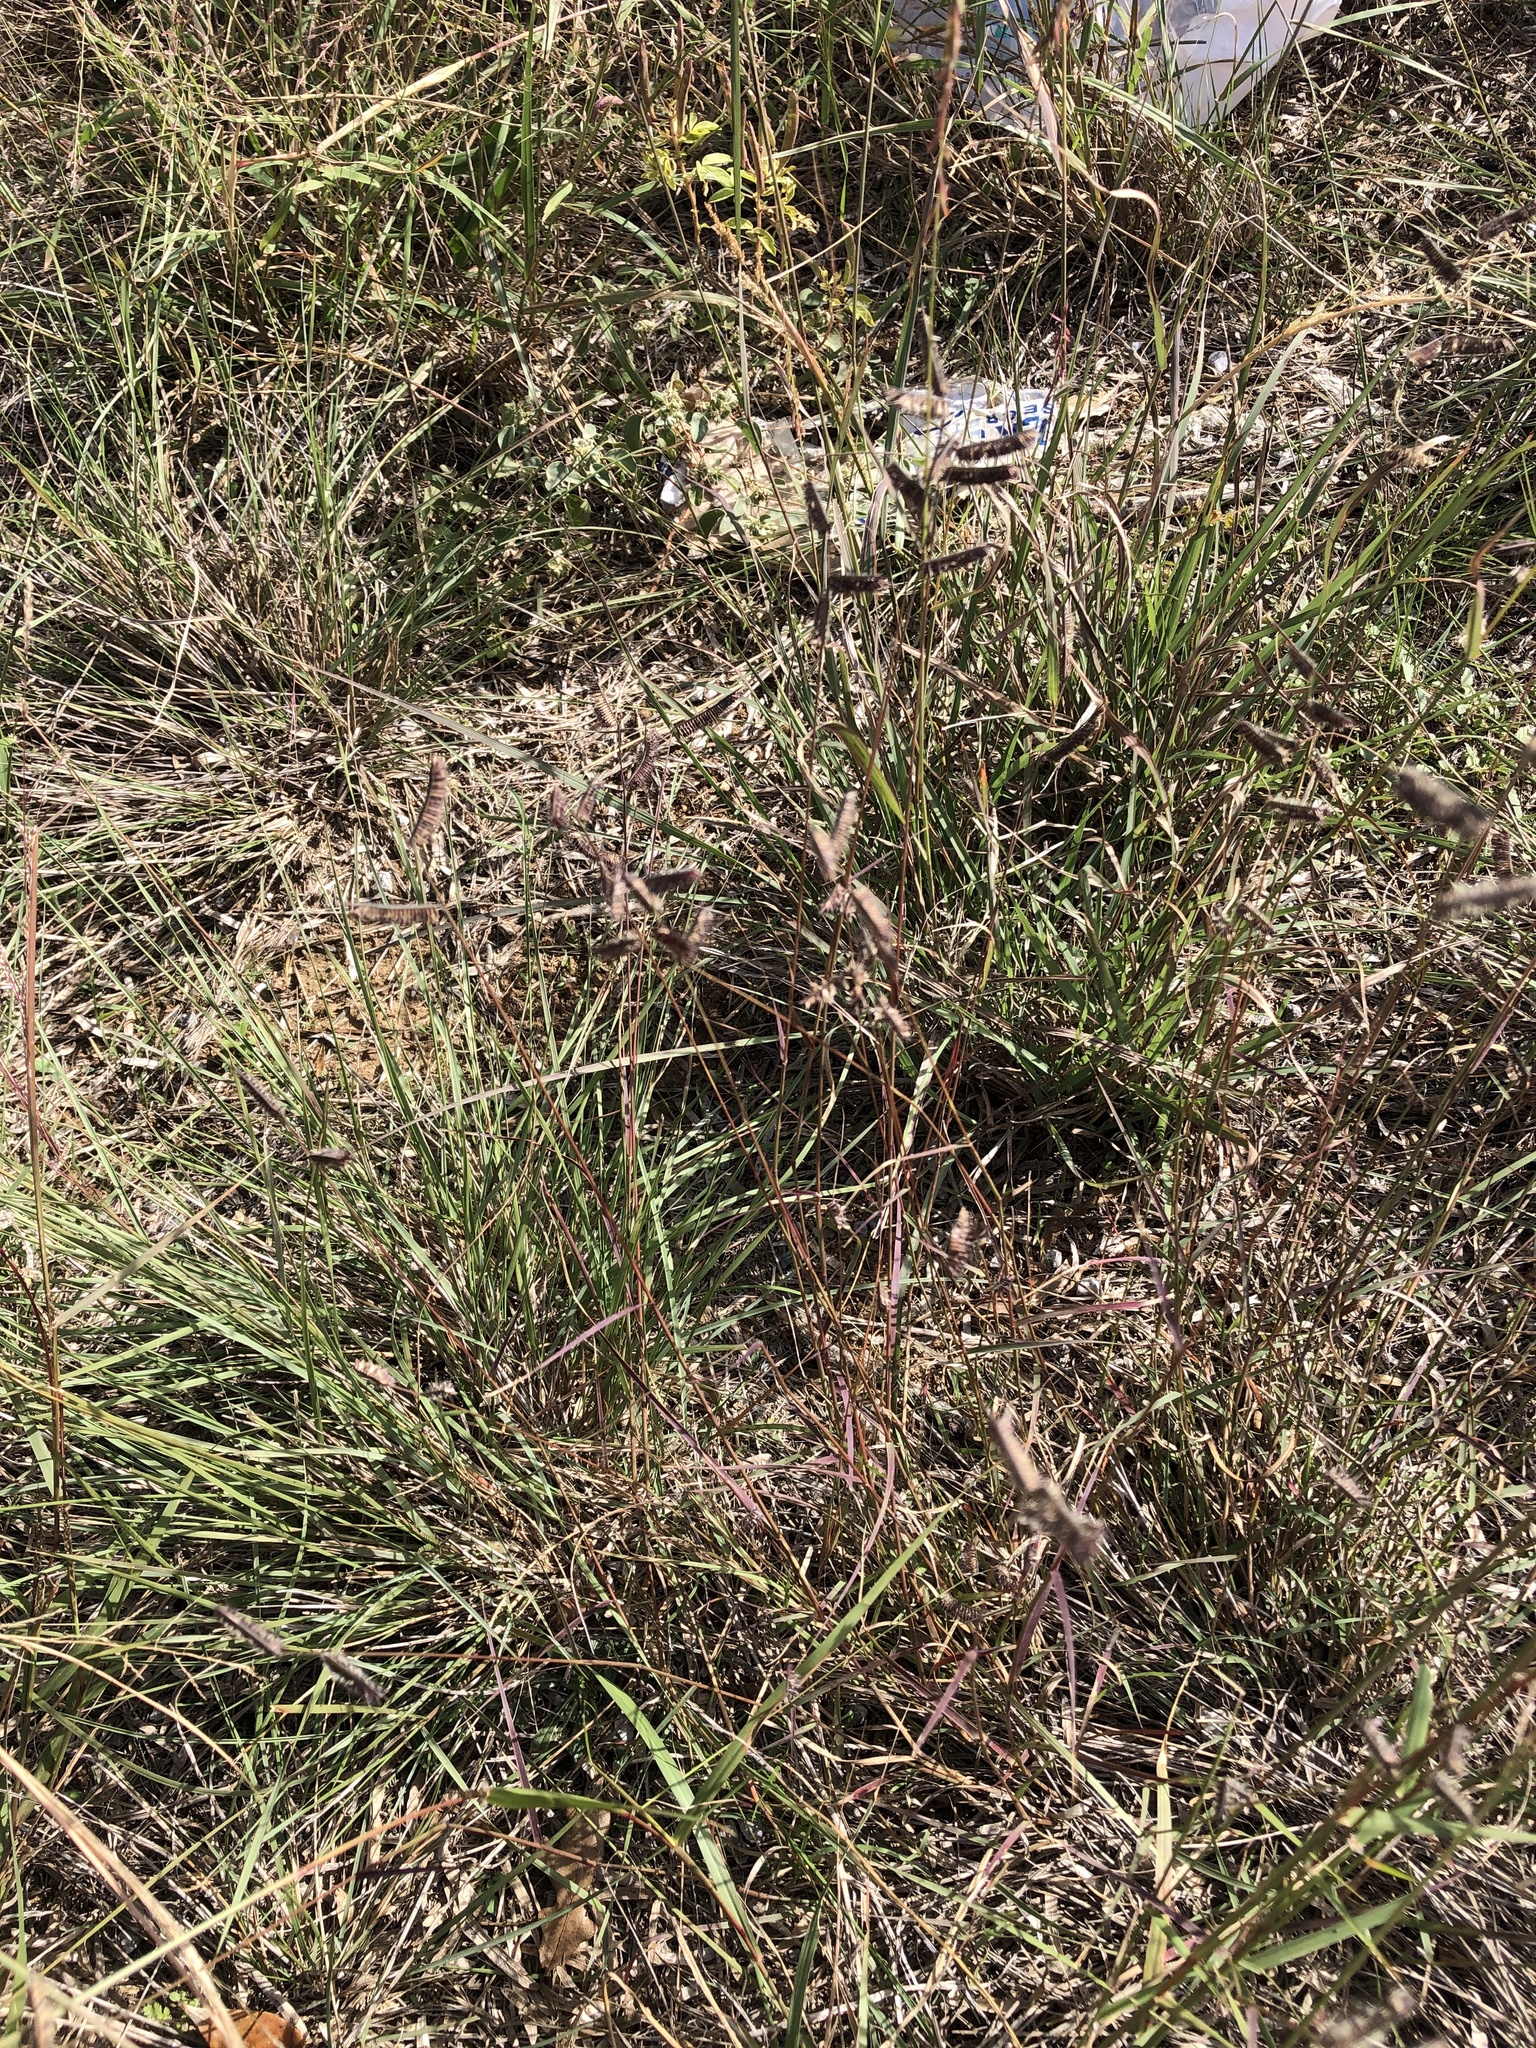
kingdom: Plantae
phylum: Tracheophyta
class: Liliopsida
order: Poales
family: Poaceae
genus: Bouteloua
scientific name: Bouteloua hirsuta
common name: Hairy grama
